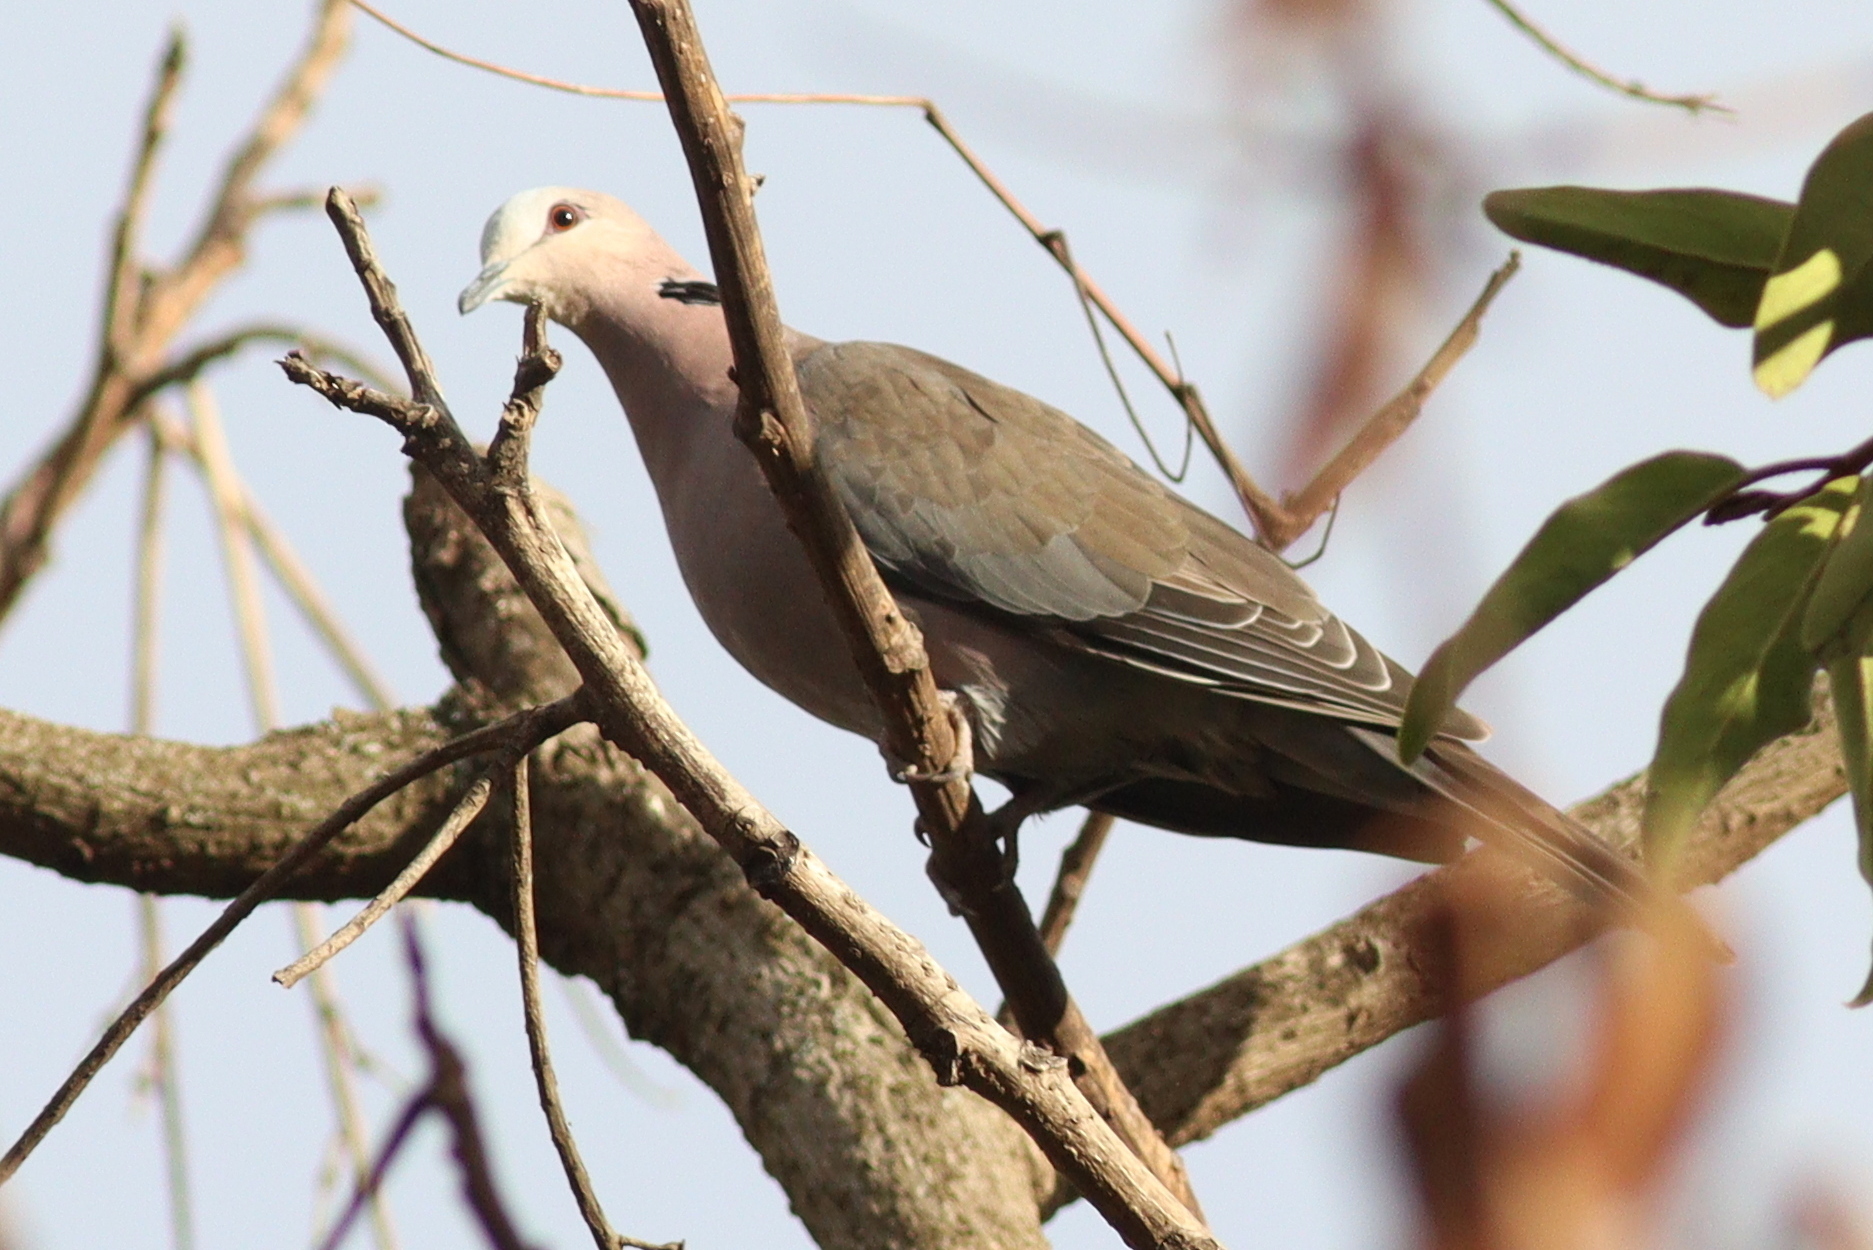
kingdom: Animalia
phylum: Chordata
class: Aves
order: Columbiformes
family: Columbidae
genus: Streptopelia
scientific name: Streptopelia semitorquata
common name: Red-eyed dove
